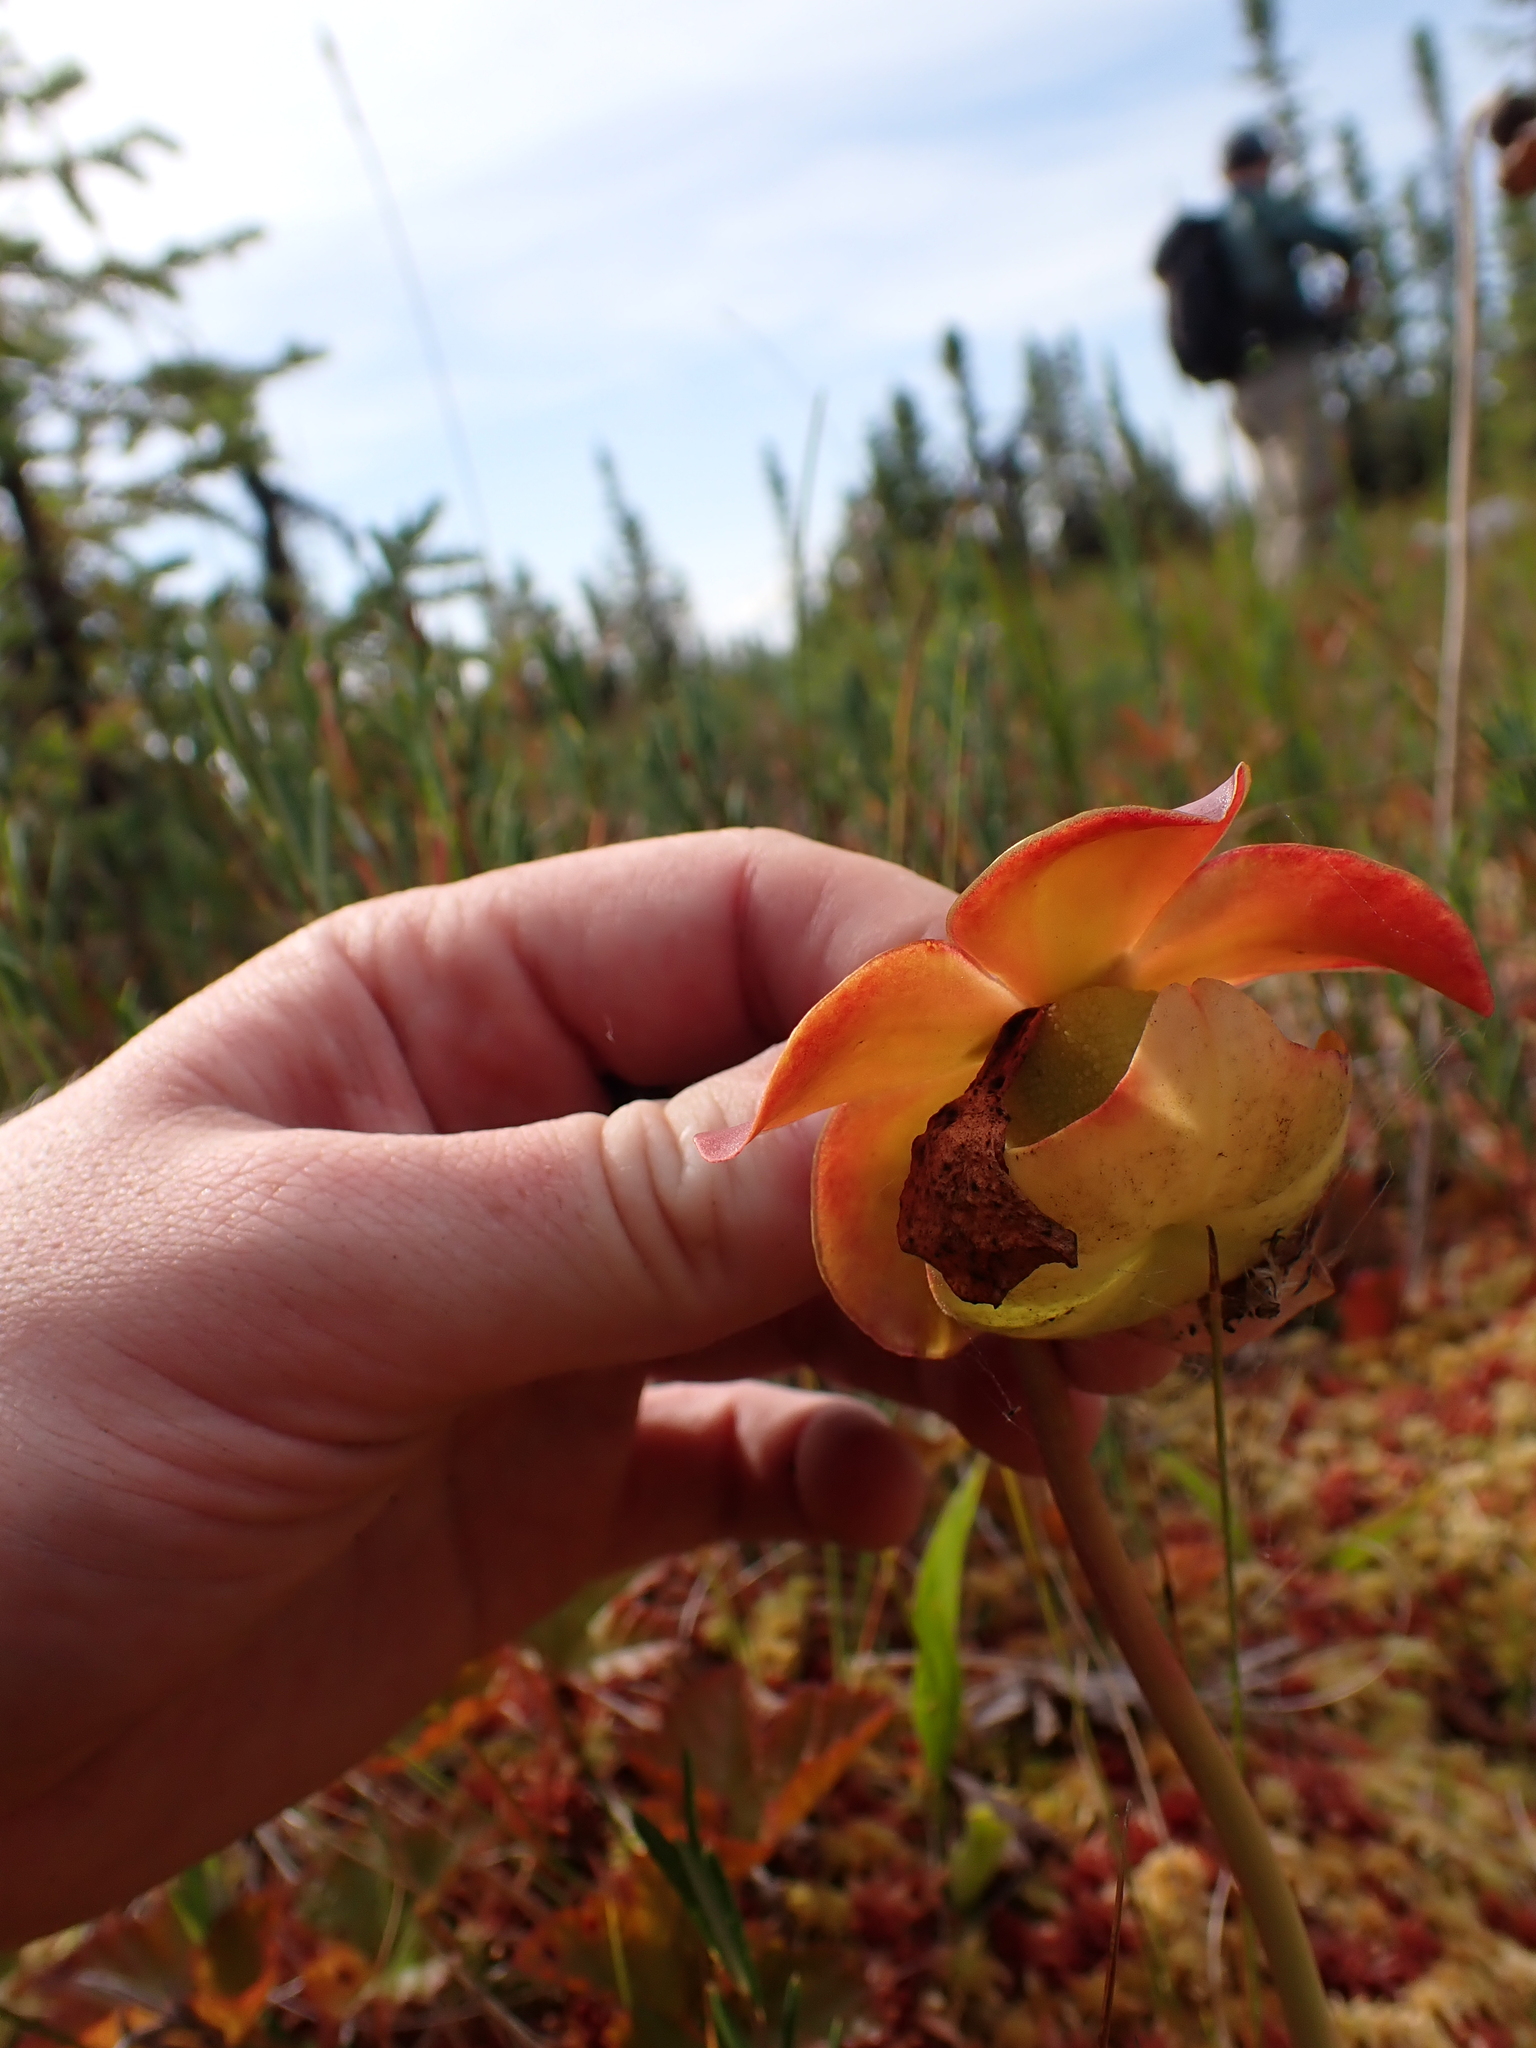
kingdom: Plantae
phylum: Tracheophyta
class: Magnoliopsida
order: Ericales
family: Sarraceniaceae
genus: Sarracenia
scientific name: Sarracenia purpurea
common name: Pitcherplant
